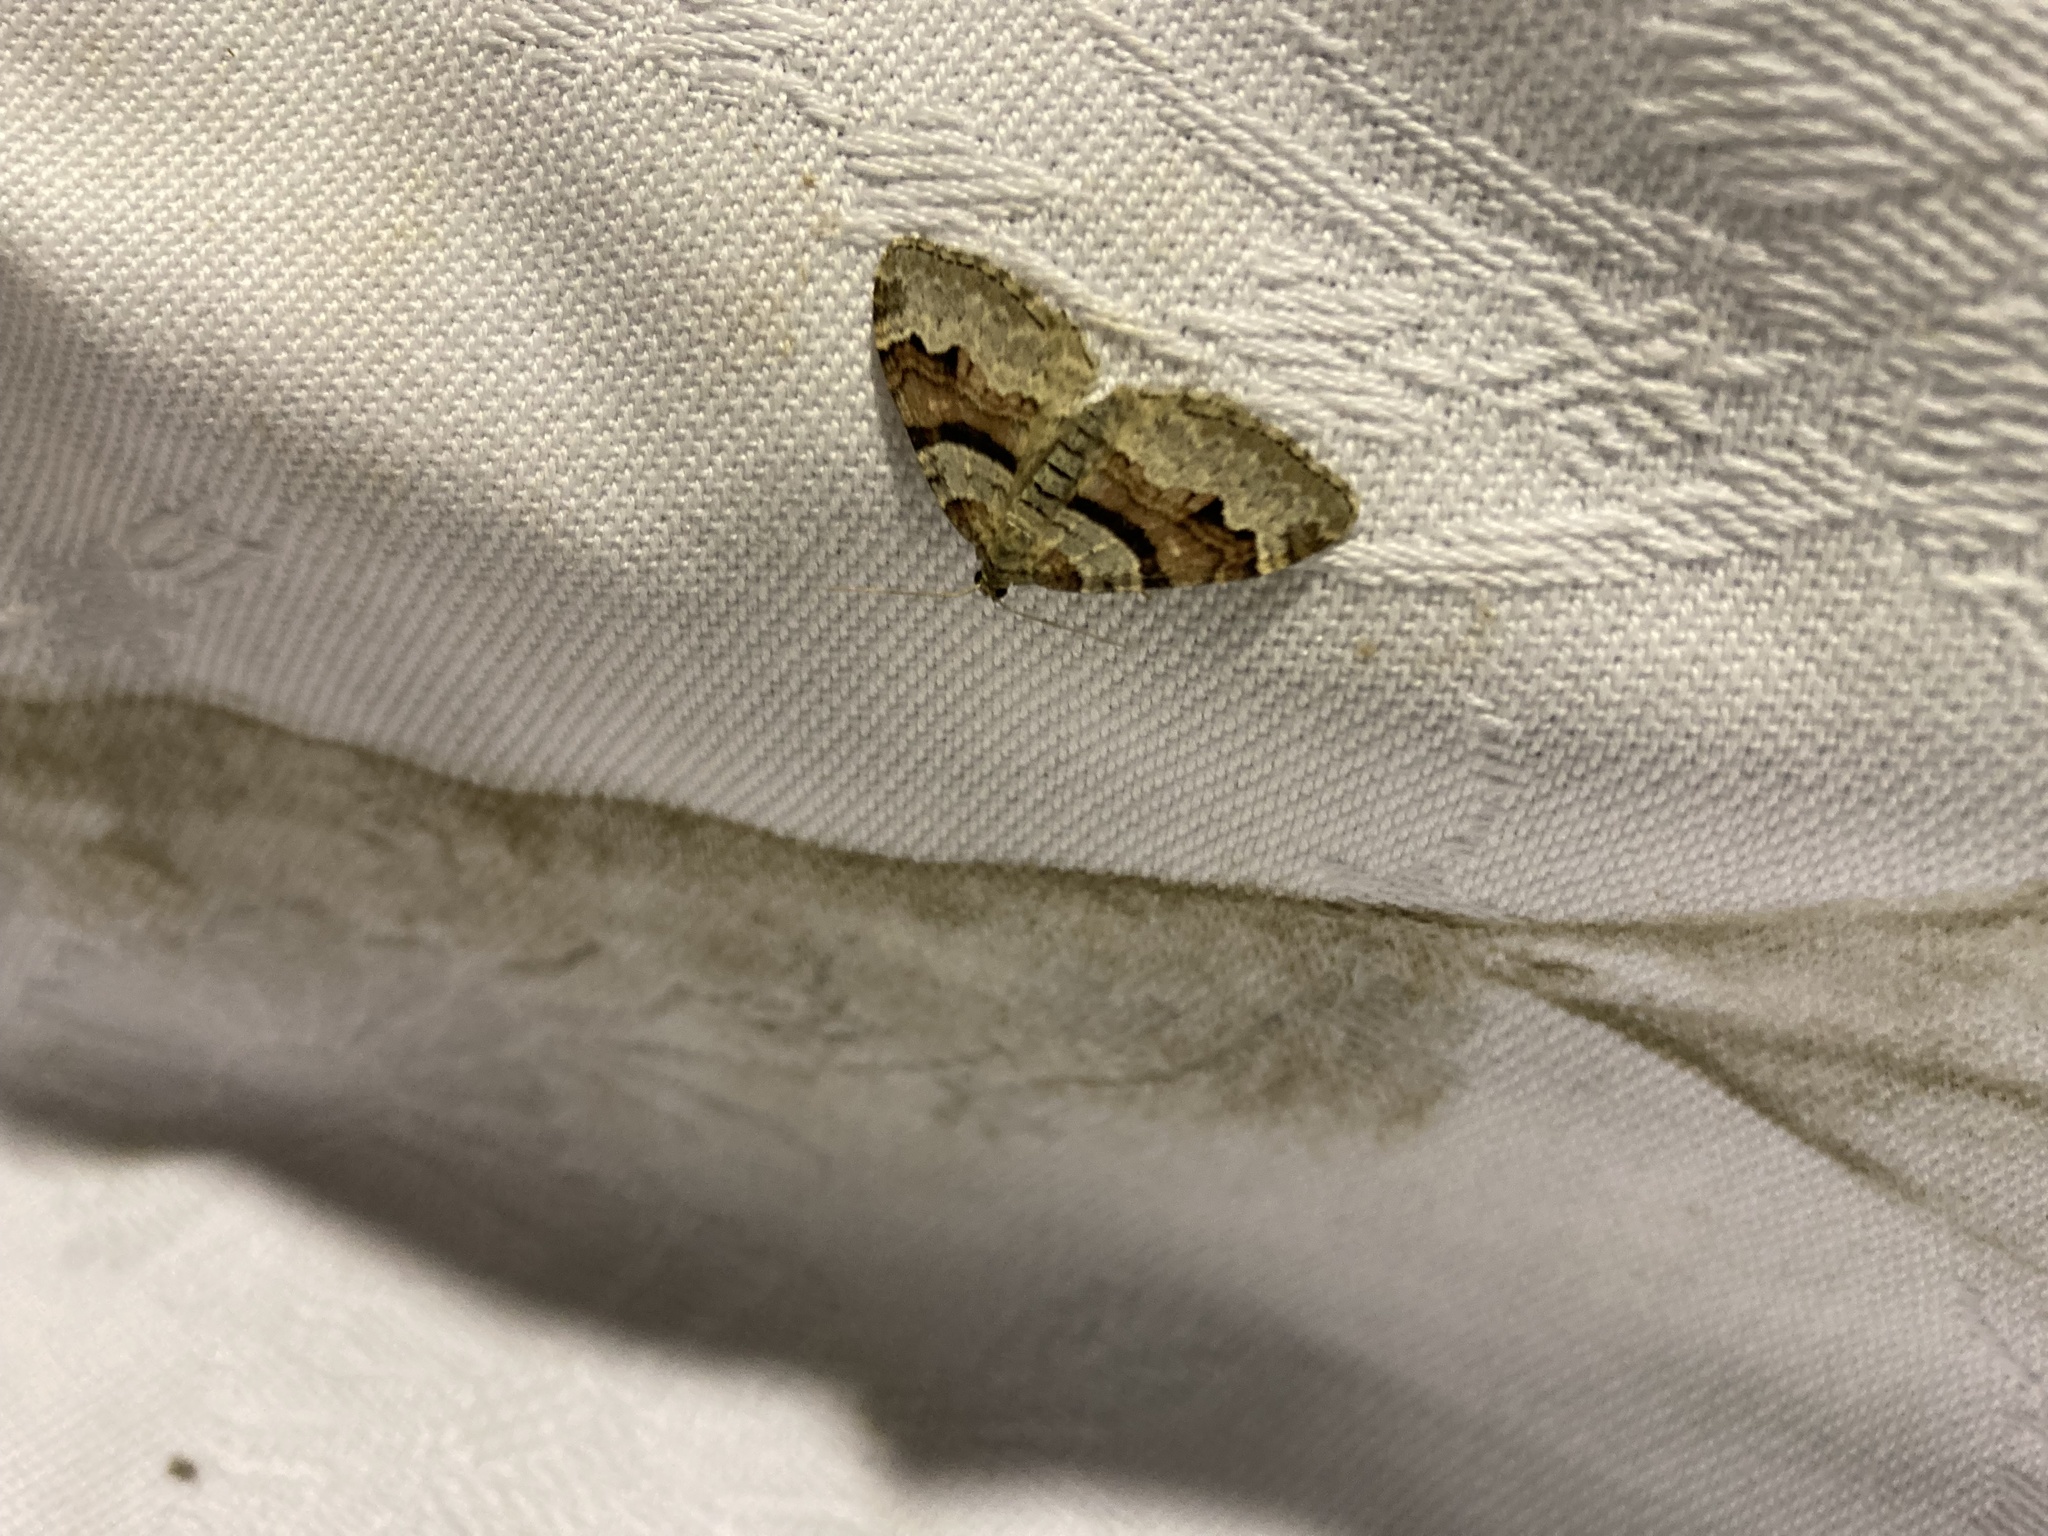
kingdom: Animalia
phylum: Arthropoda
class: Insecta
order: Lepidoptera
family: Geometridae
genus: Catarhoe
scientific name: Catarhoe rubidata
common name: Ruddy carpet
